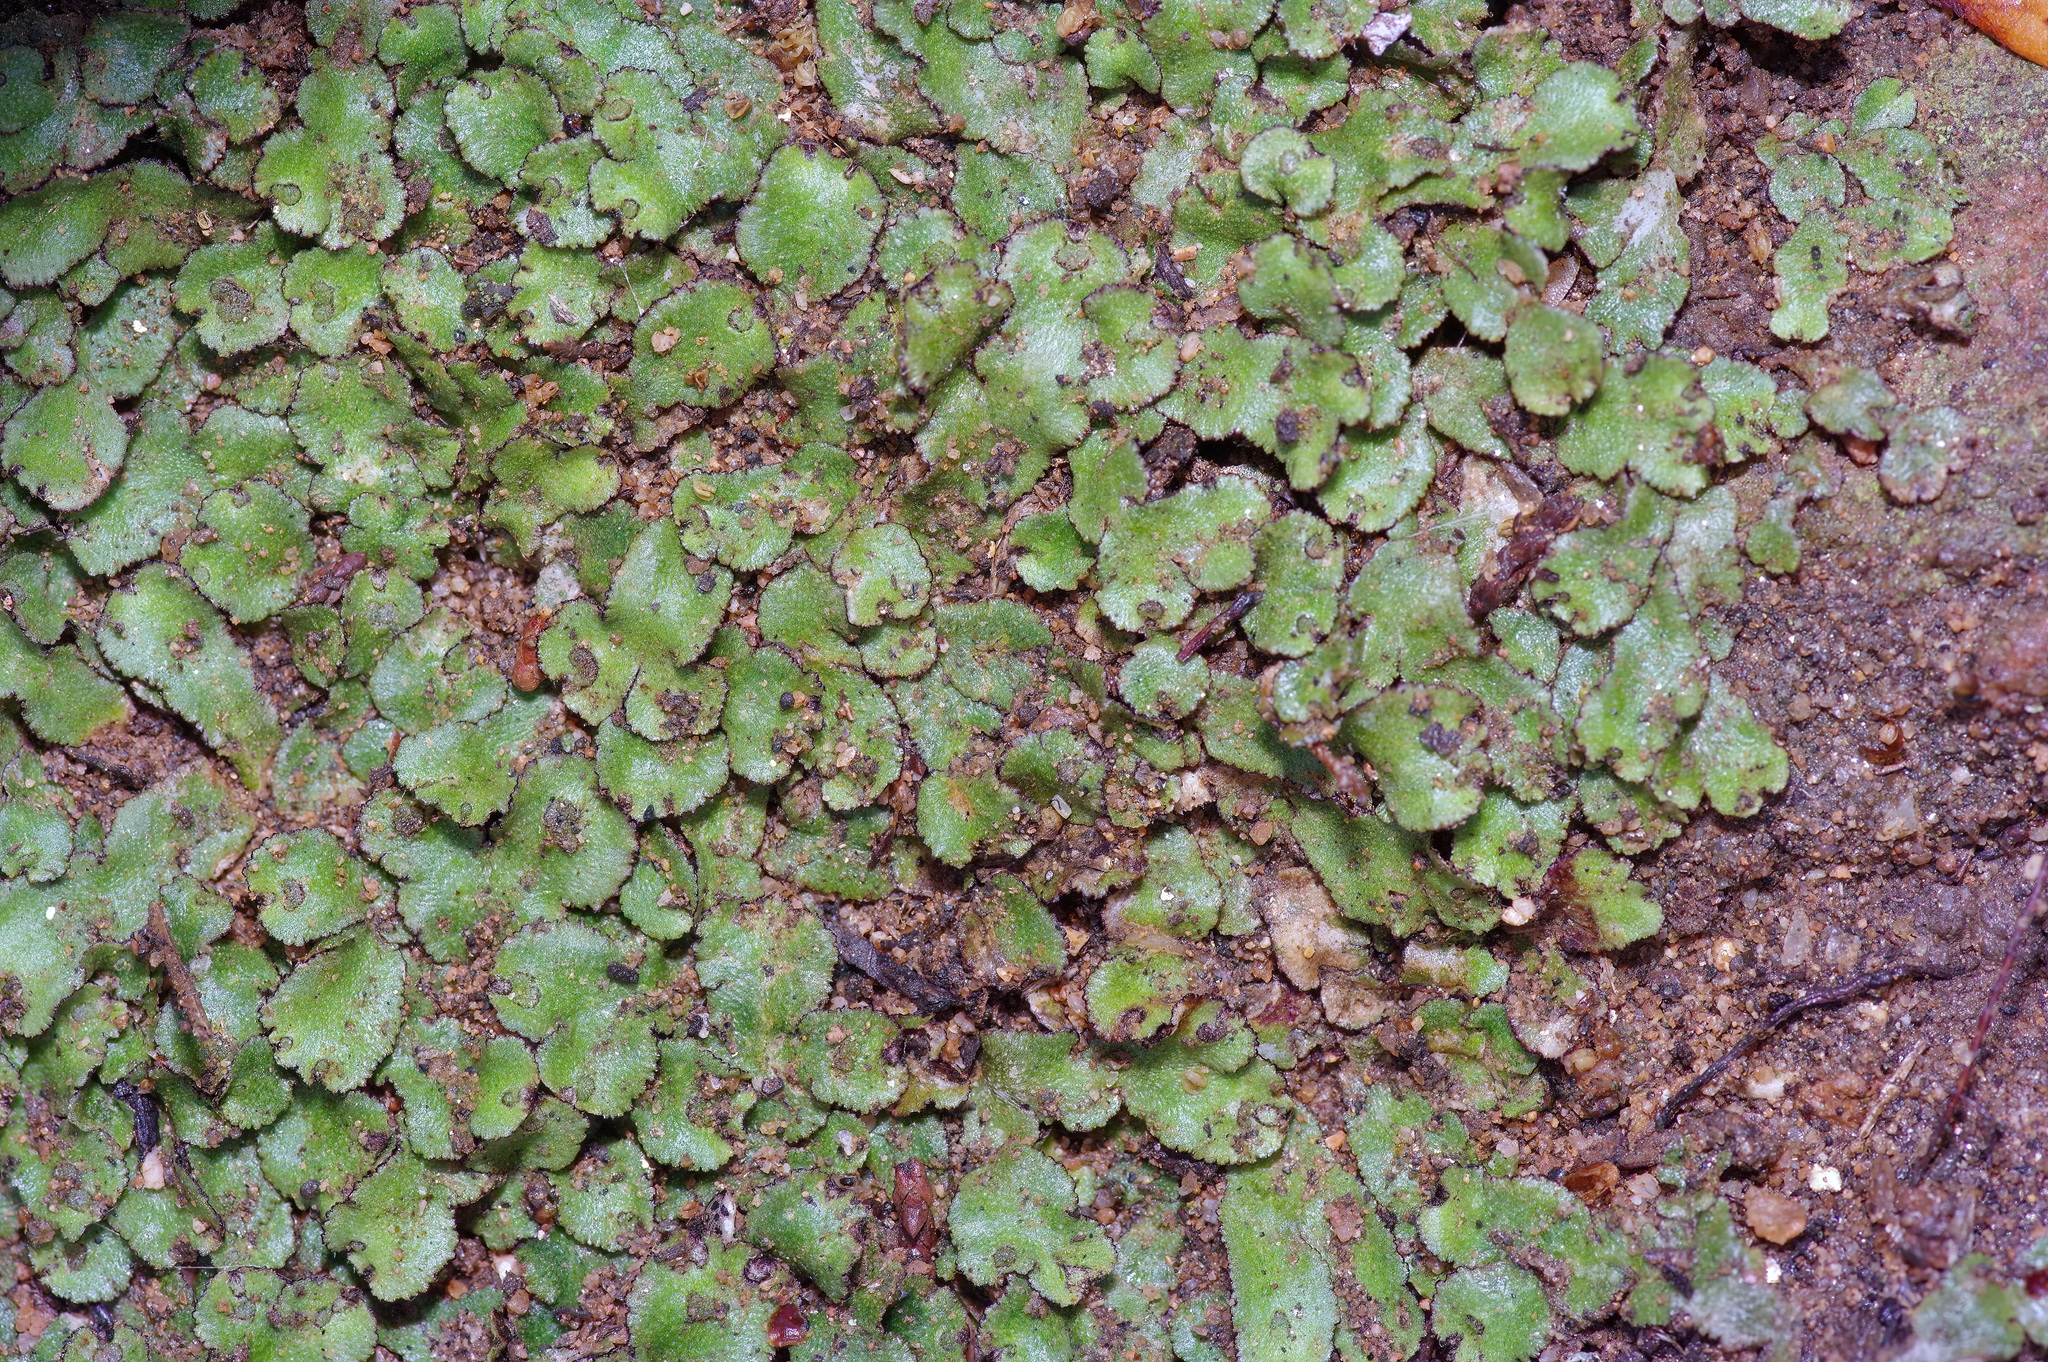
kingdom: Plantae
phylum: Marchantiophyta
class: Marchantiopsida
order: Marchantiales
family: Aytoniaceae
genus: Reboulia
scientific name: Reboulia hemisphaerica
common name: Purple-margined liverwort
